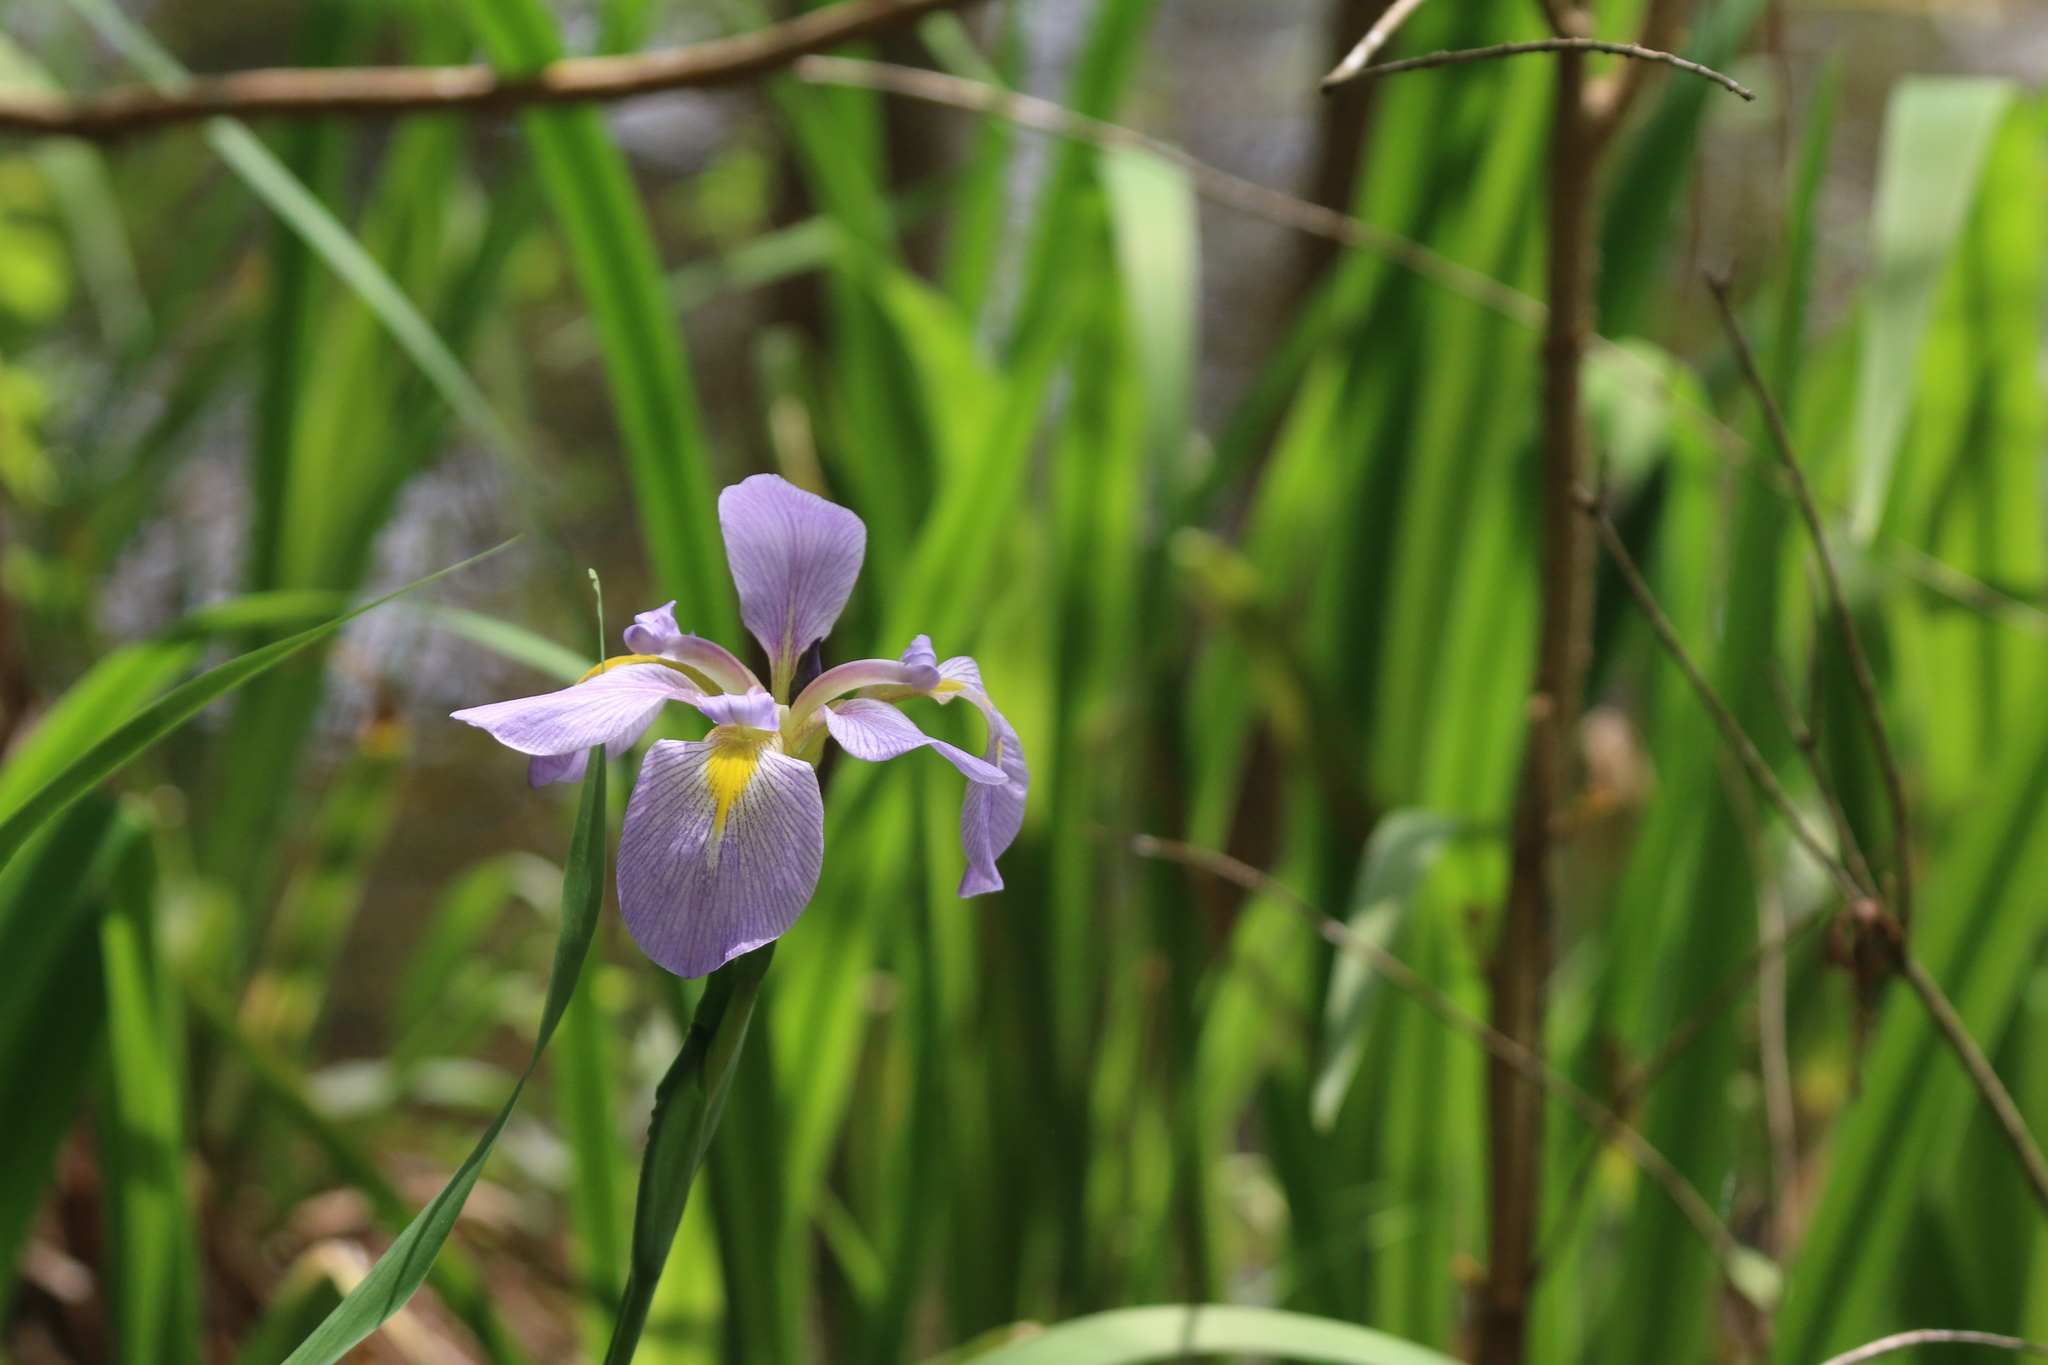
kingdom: Plantae
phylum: Tracheophyta
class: Liliopsida
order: Asparagales
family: Iridaceae
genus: Iris
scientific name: Iris virginica
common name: Southern blue flag
